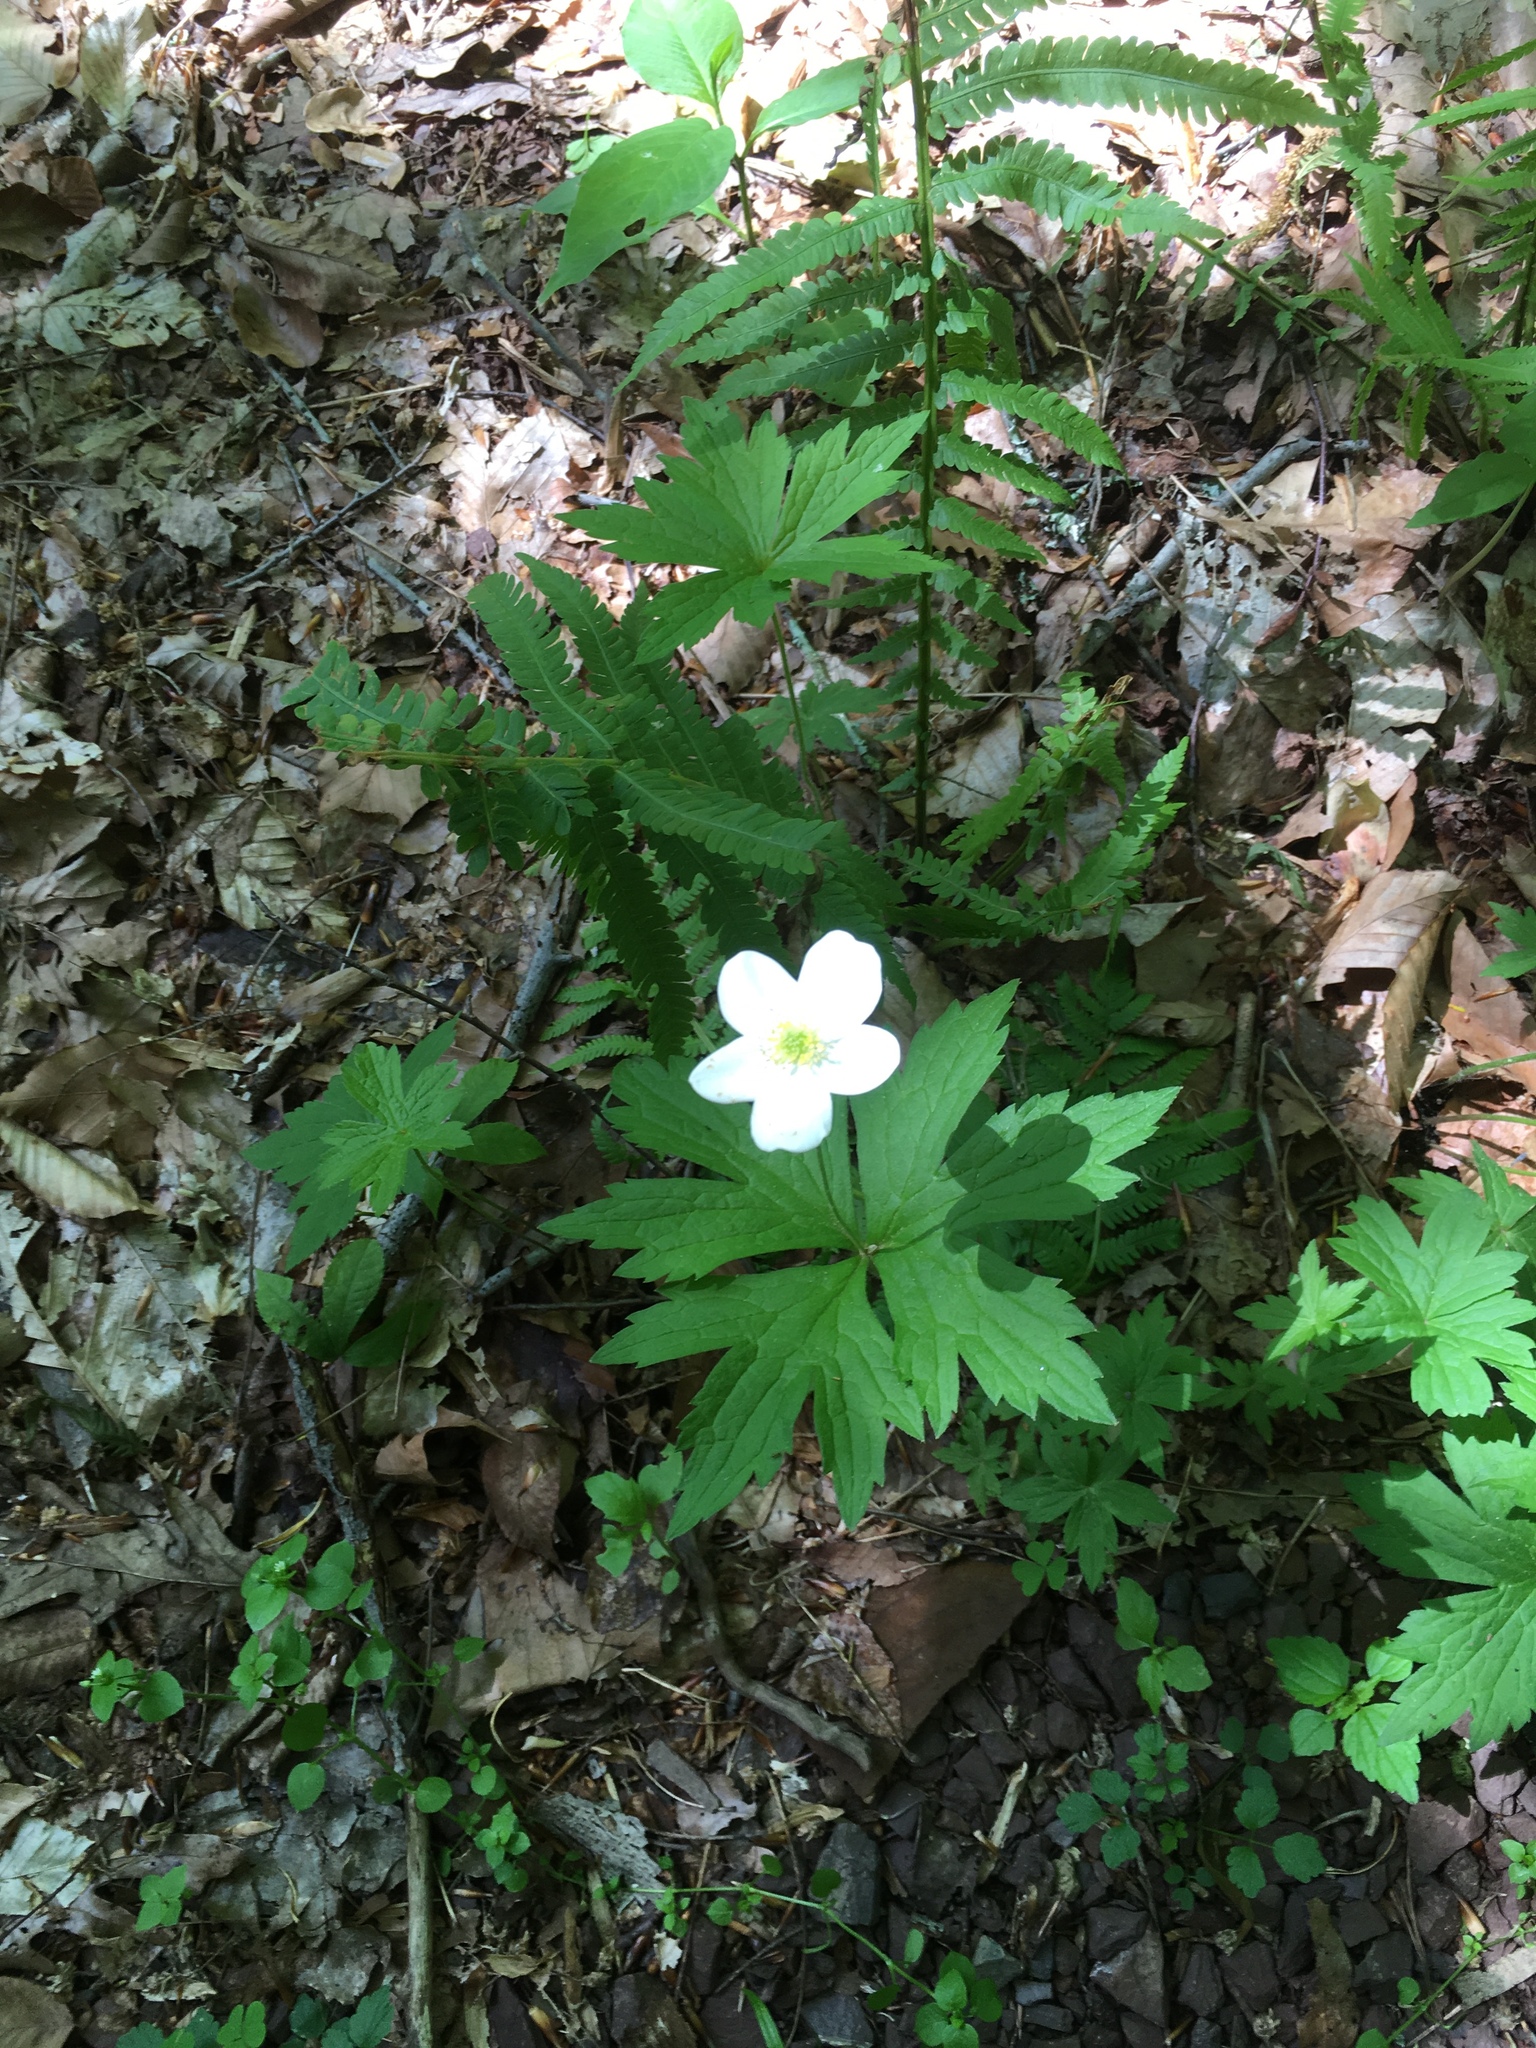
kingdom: Plantae
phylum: Tracheophyta
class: Magnoliopsida
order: Ranunculales
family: Ranunculaceae
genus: Anemonastrum
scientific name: Anemonastrum canadense
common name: Canada anemone
